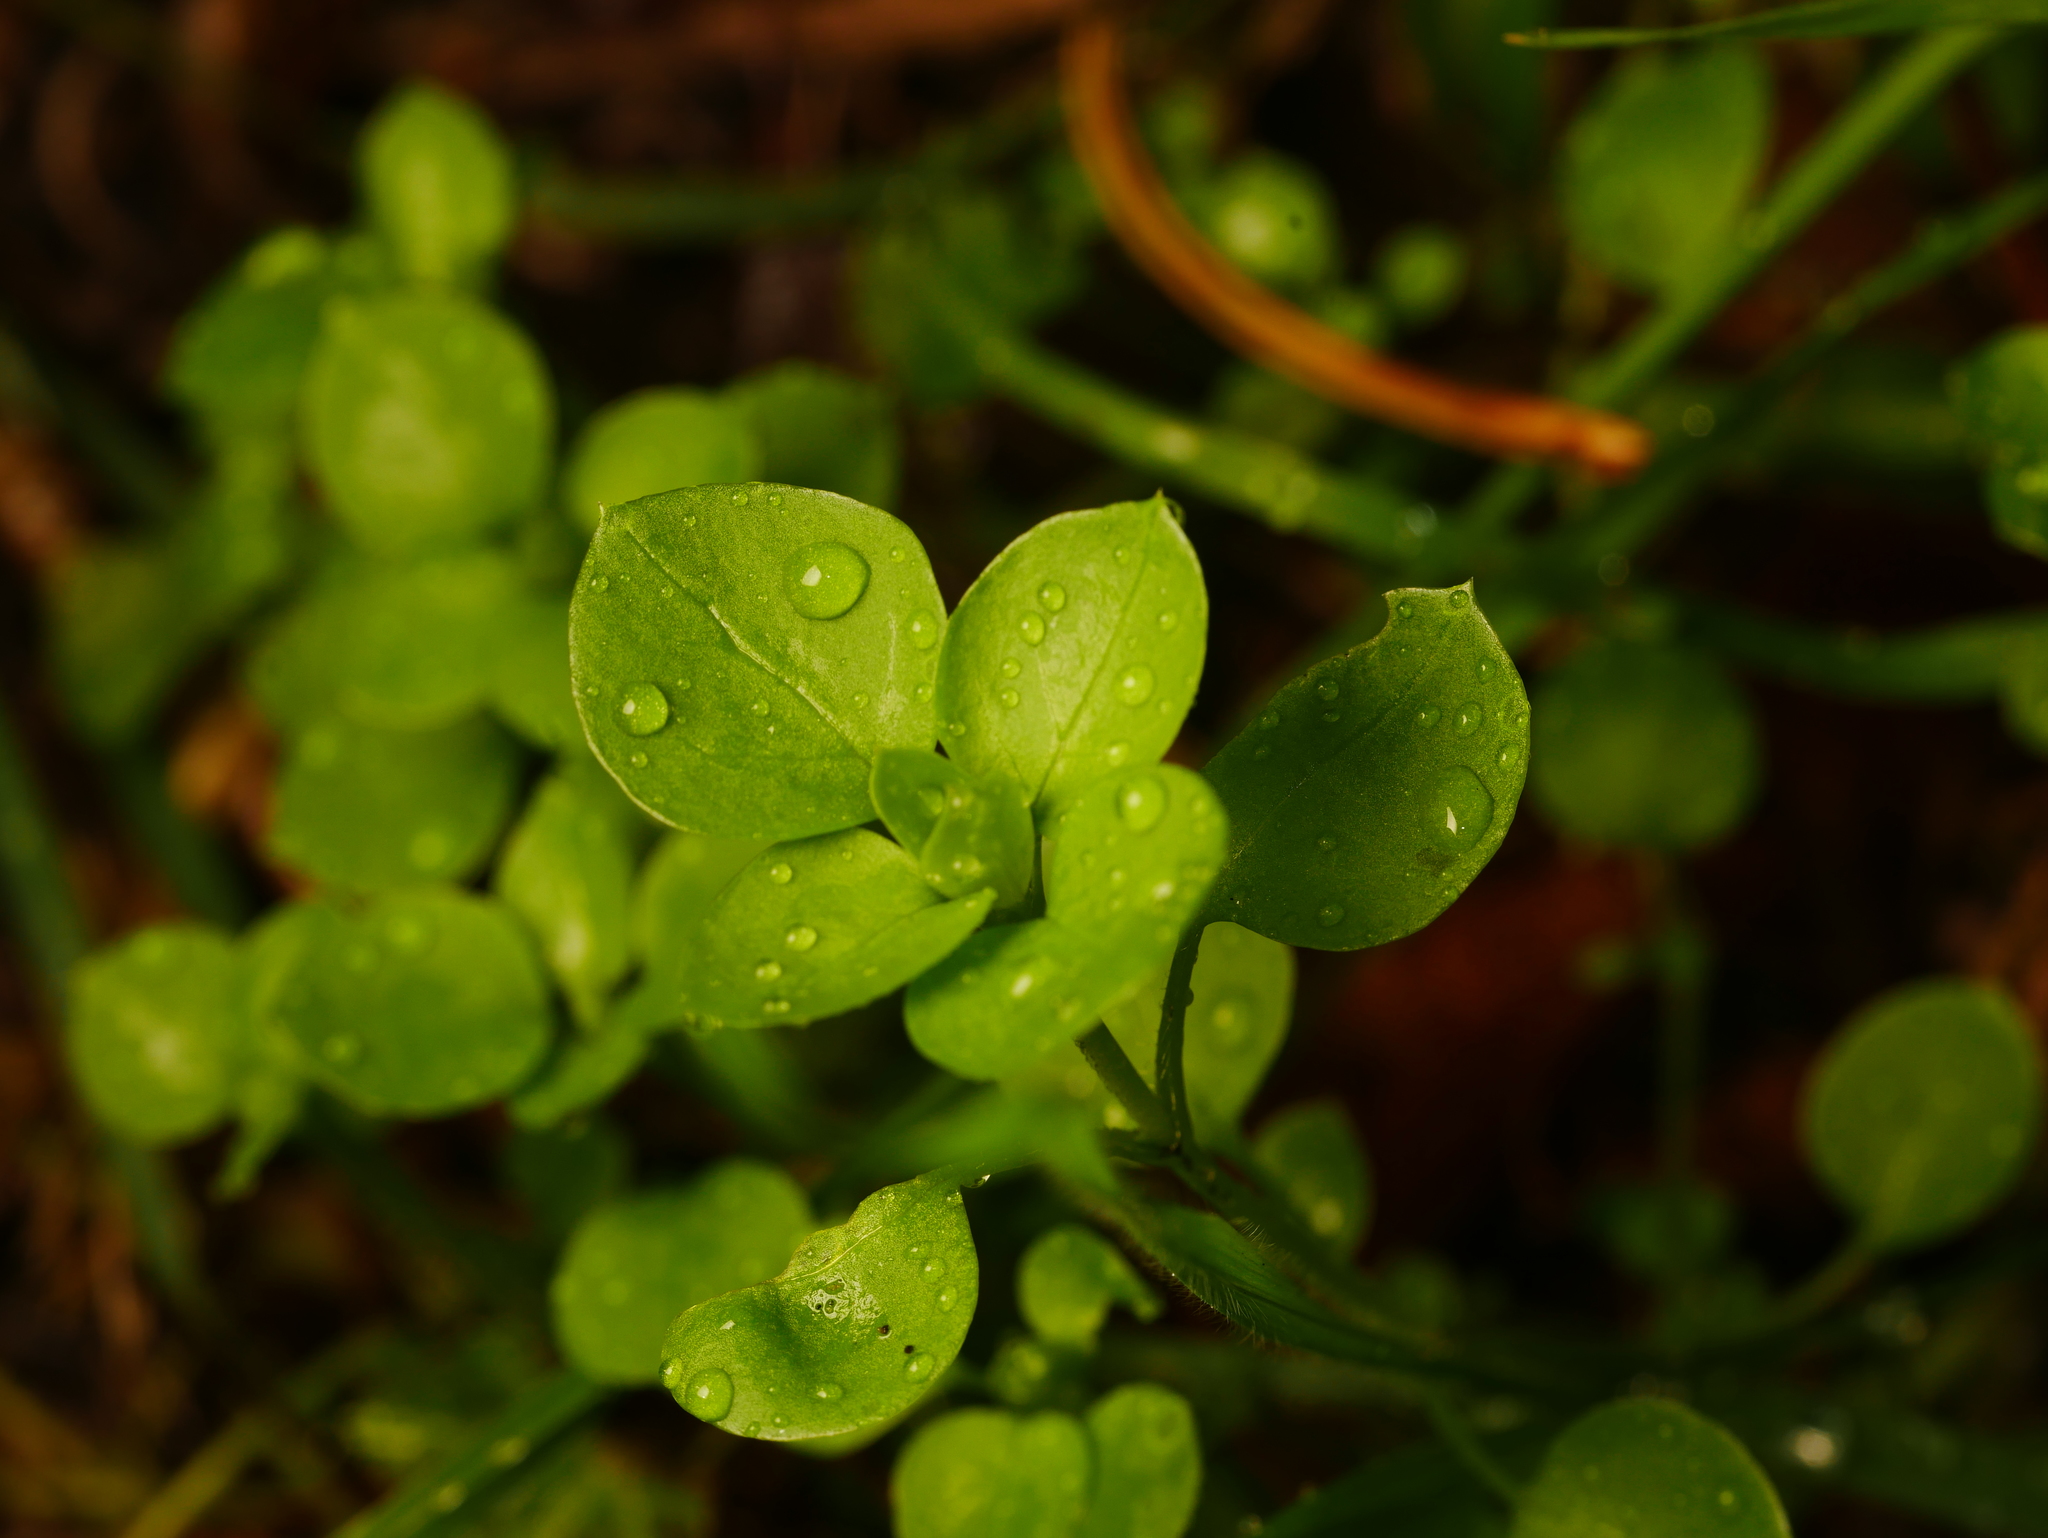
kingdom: Plantae
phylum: Tracheophyta
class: Magnoliopsida
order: Caryophyllales
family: Caryophyllaceae
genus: Stellaria
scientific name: Stellaria media
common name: Common chickweed
